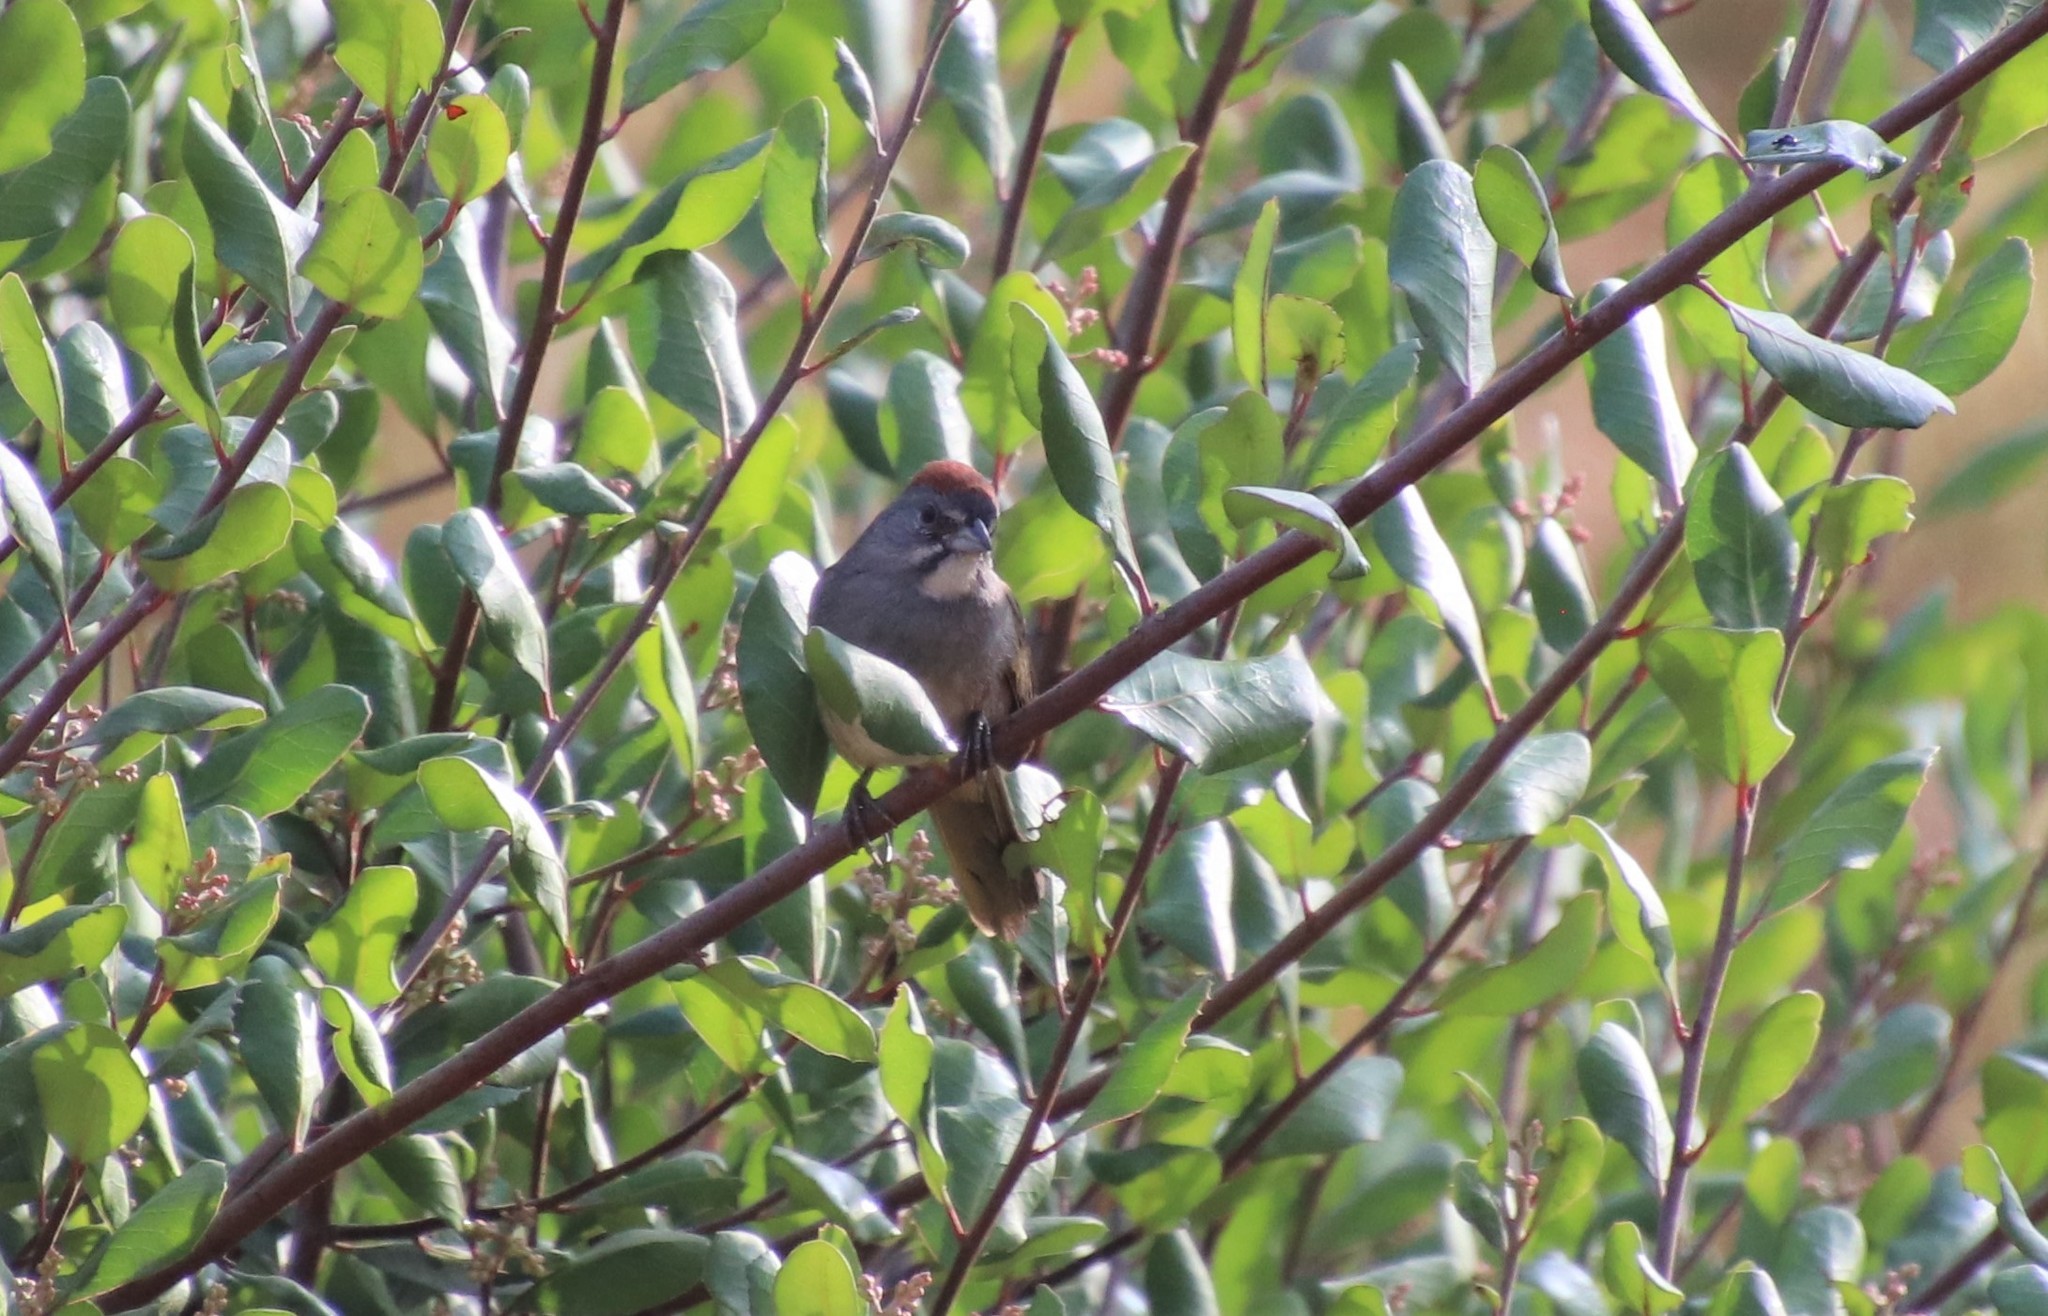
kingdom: Animalia
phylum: Chordata
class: Aves
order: Passeriformes
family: Passerellidae
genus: Pipilo
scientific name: Pipilo chlorurus
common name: Green-tailed towhee
